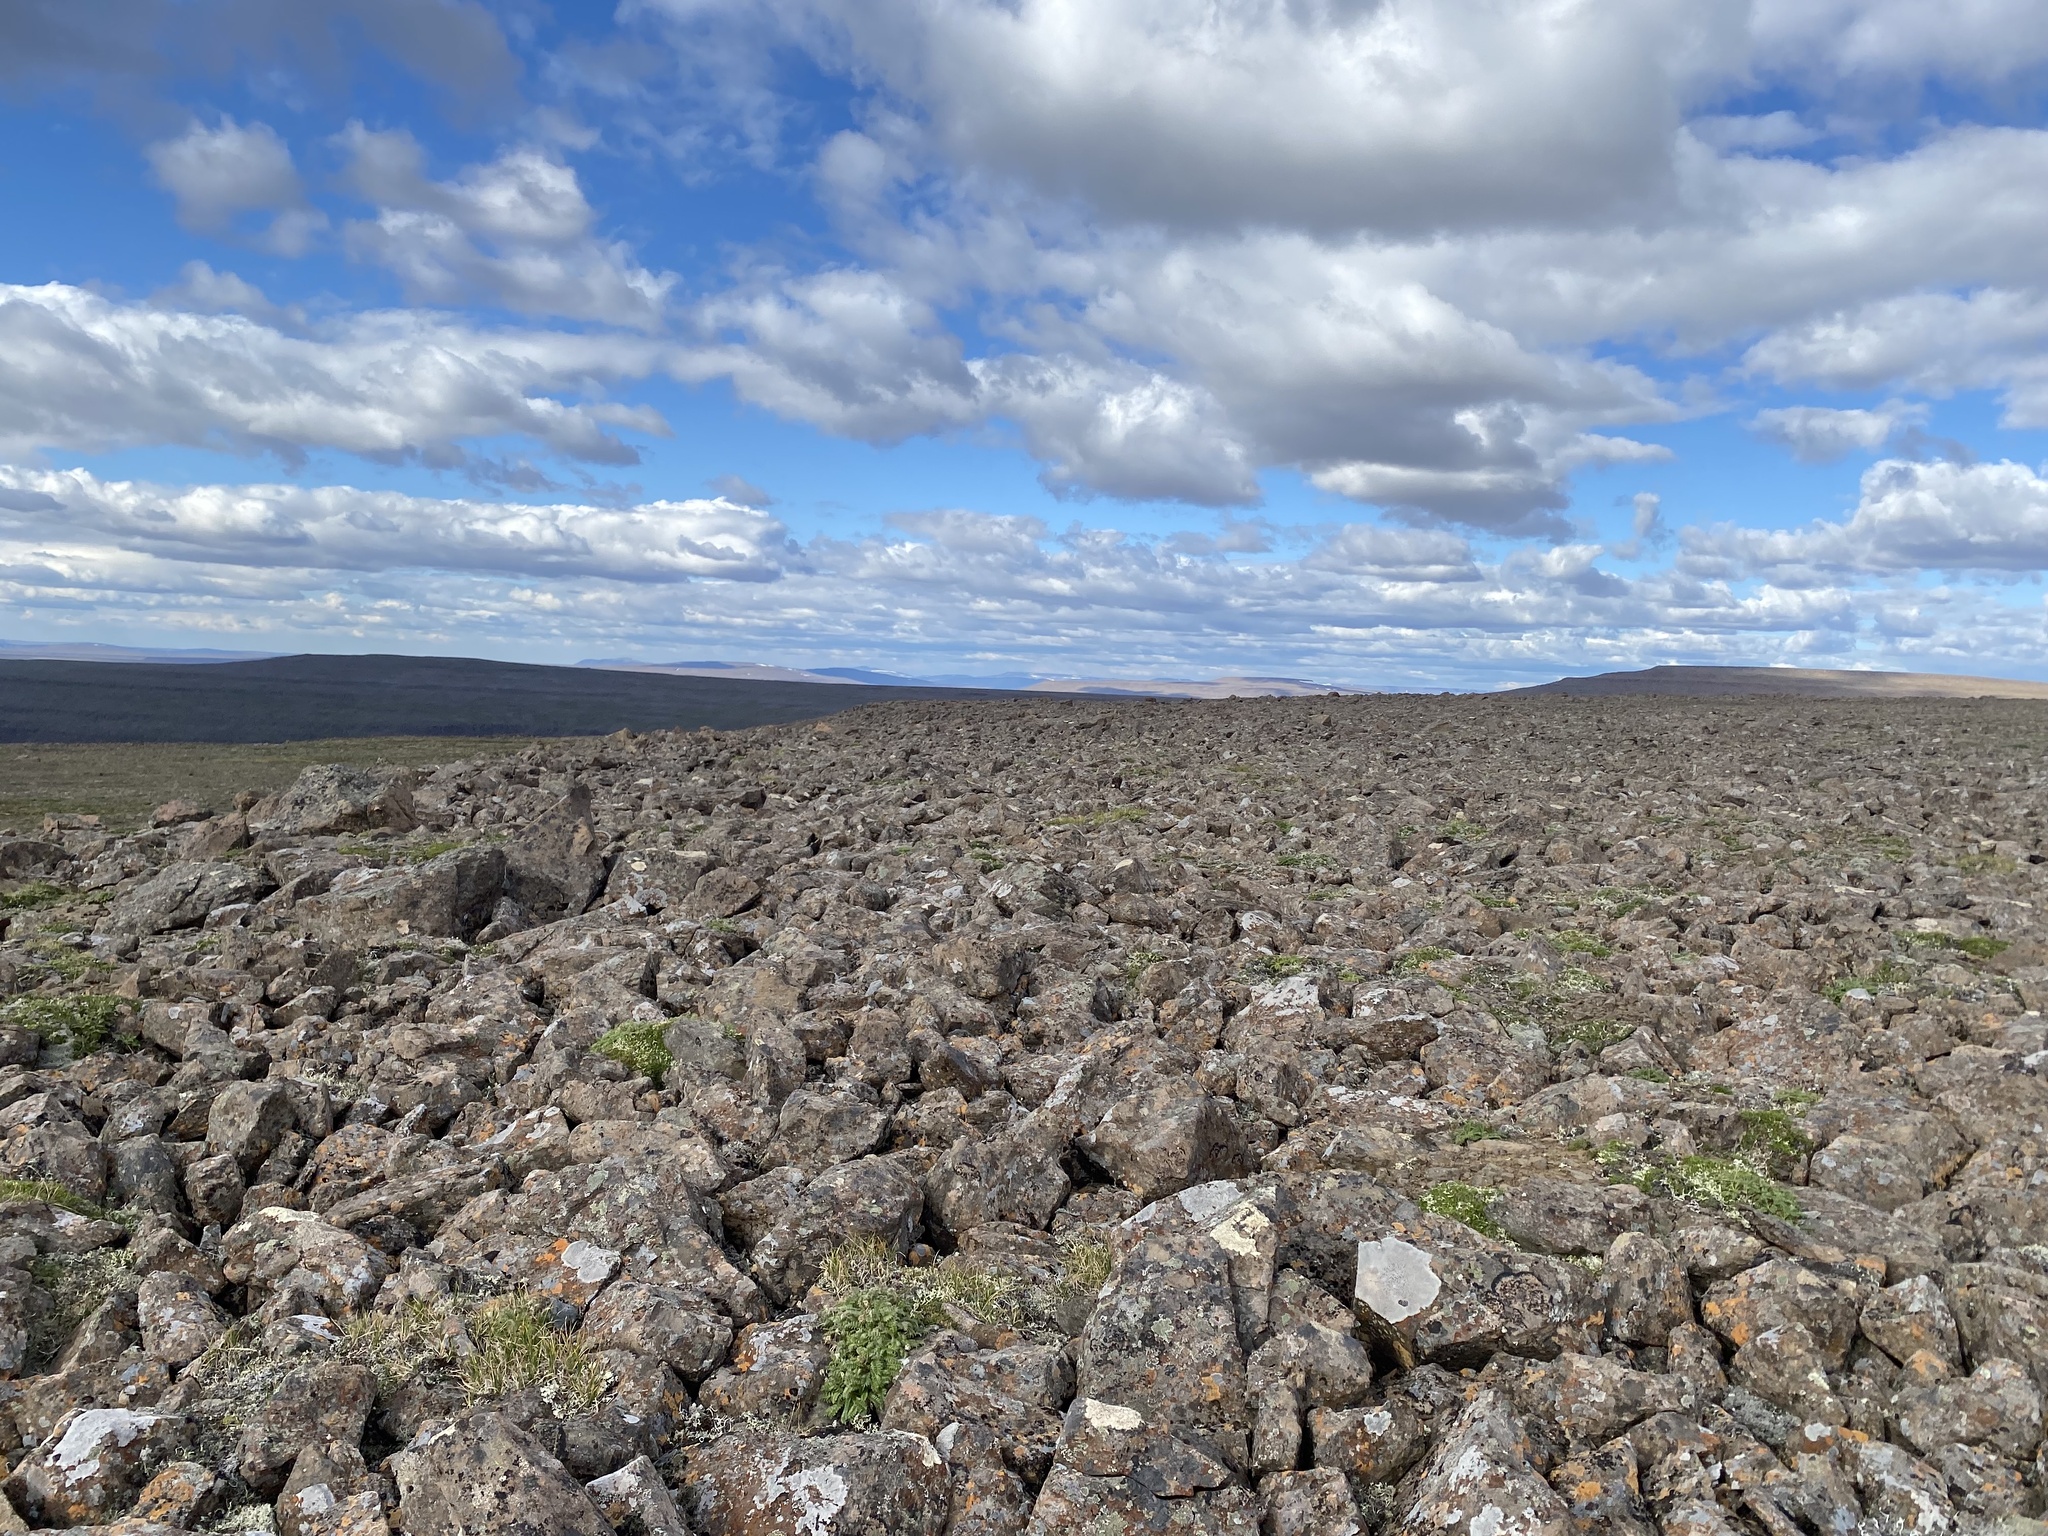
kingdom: Plantae
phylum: Tracheophyta
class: Magnoliopsida
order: Rosales
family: Rosaceae
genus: Geum
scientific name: Geum glaciale
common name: Glacier avens
